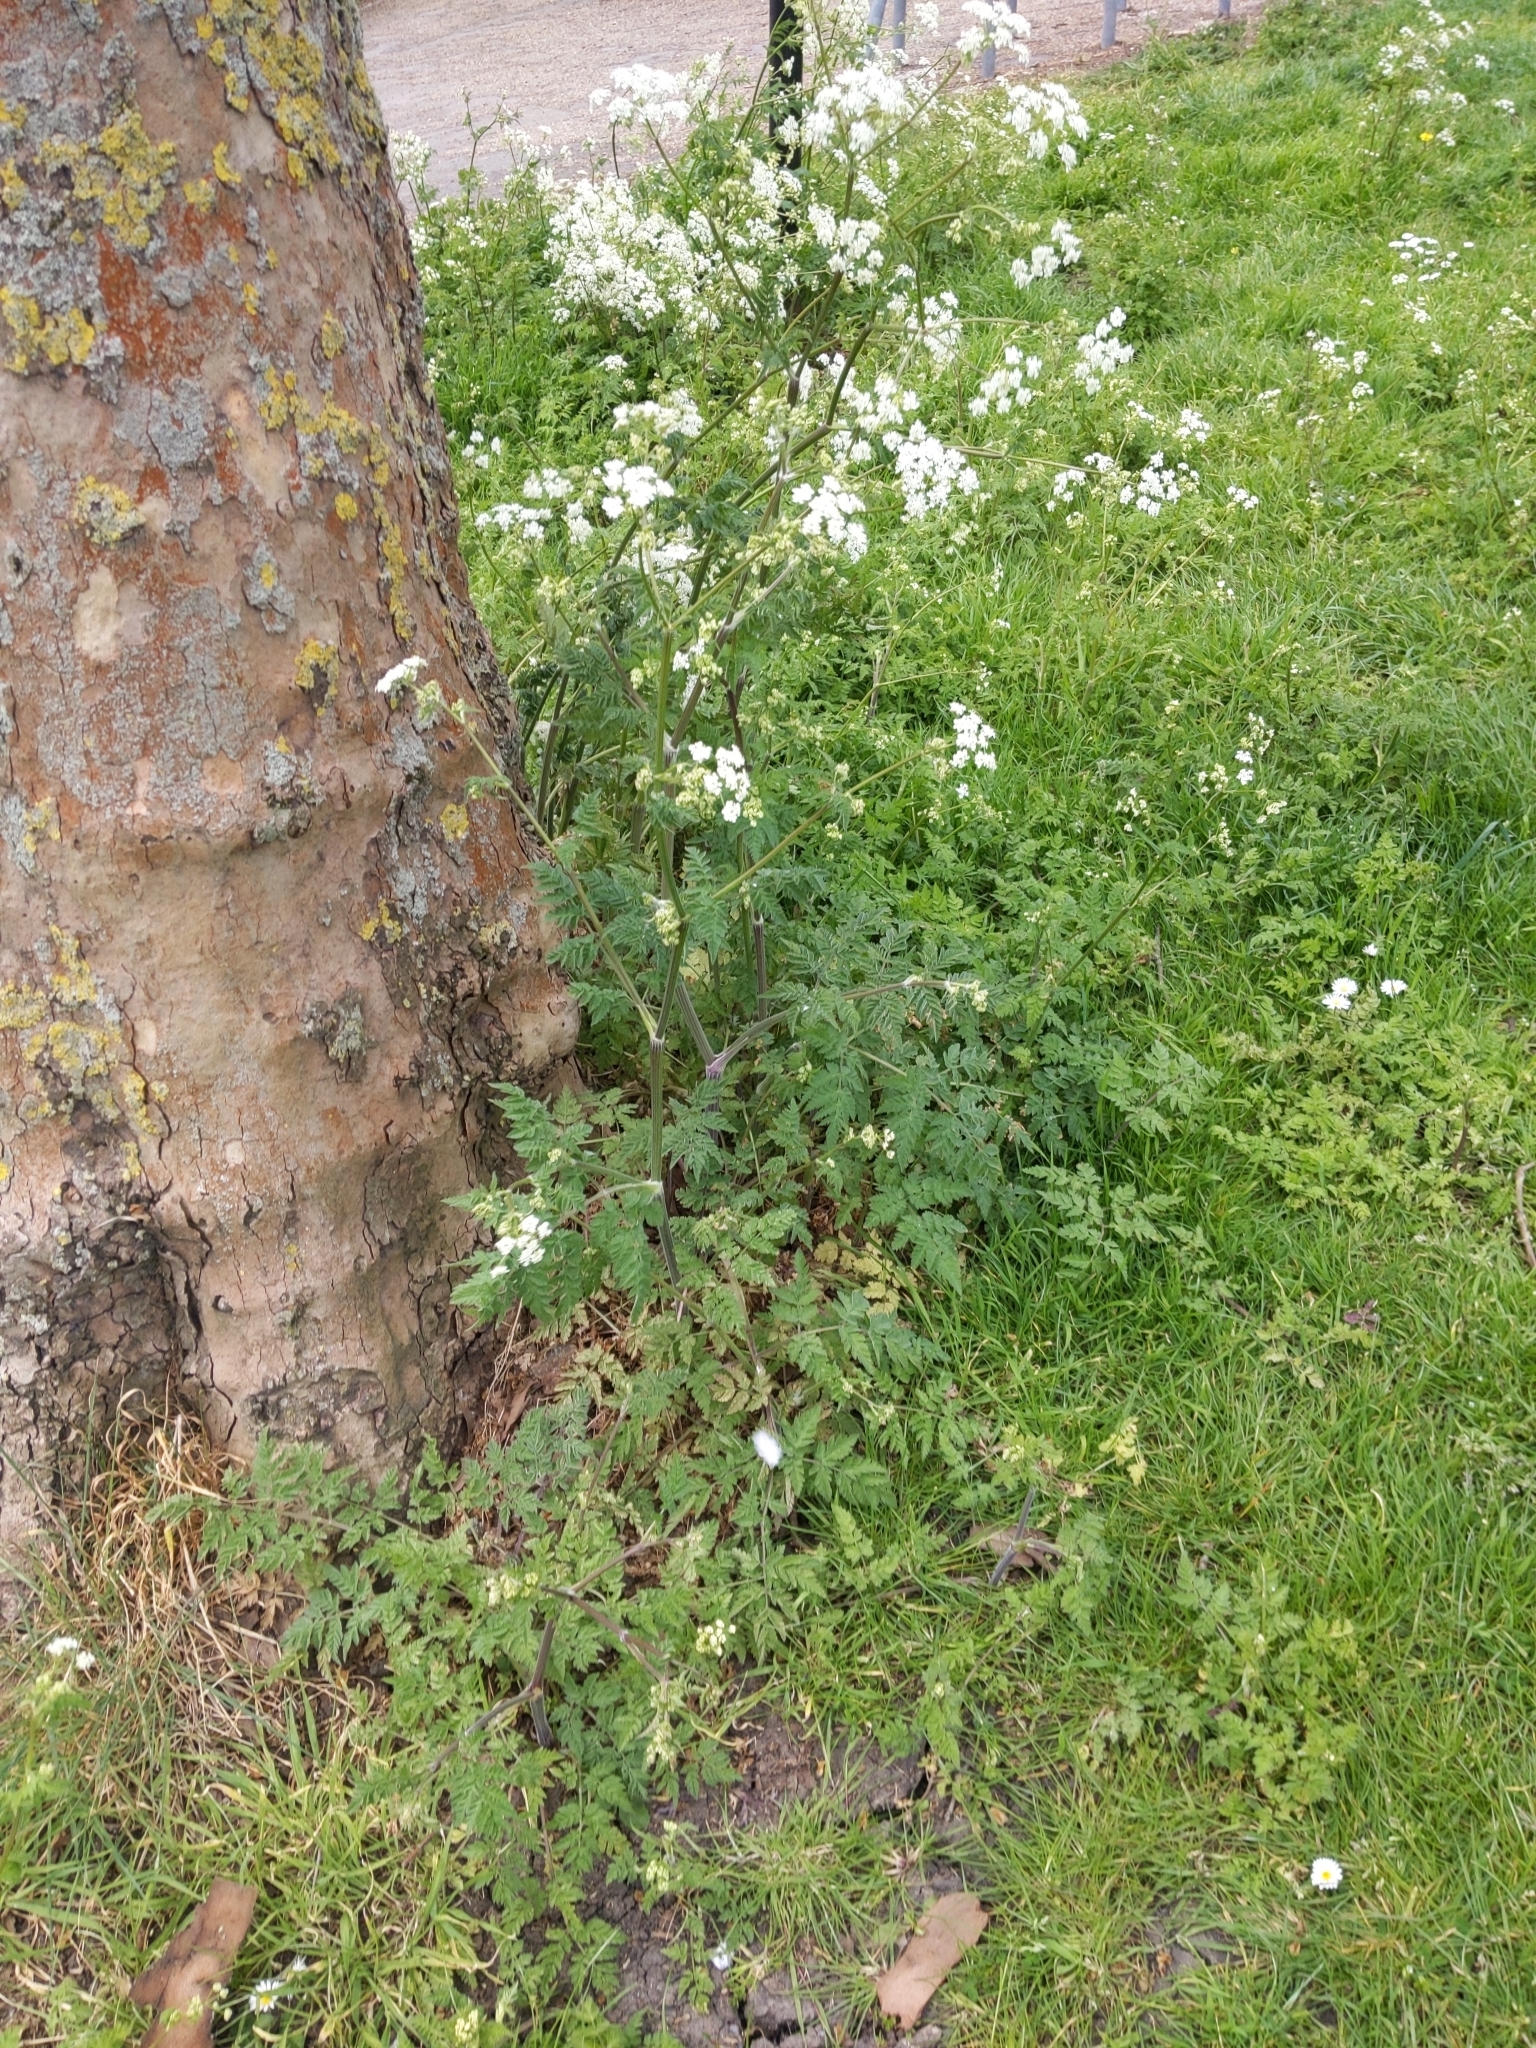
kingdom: Plantae
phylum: Tracheophyta
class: Magnoliopsida
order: Apiales
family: Apiaceae
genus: Anthriscus
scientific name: Anthriscus sylvestris
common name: Cow parsley
